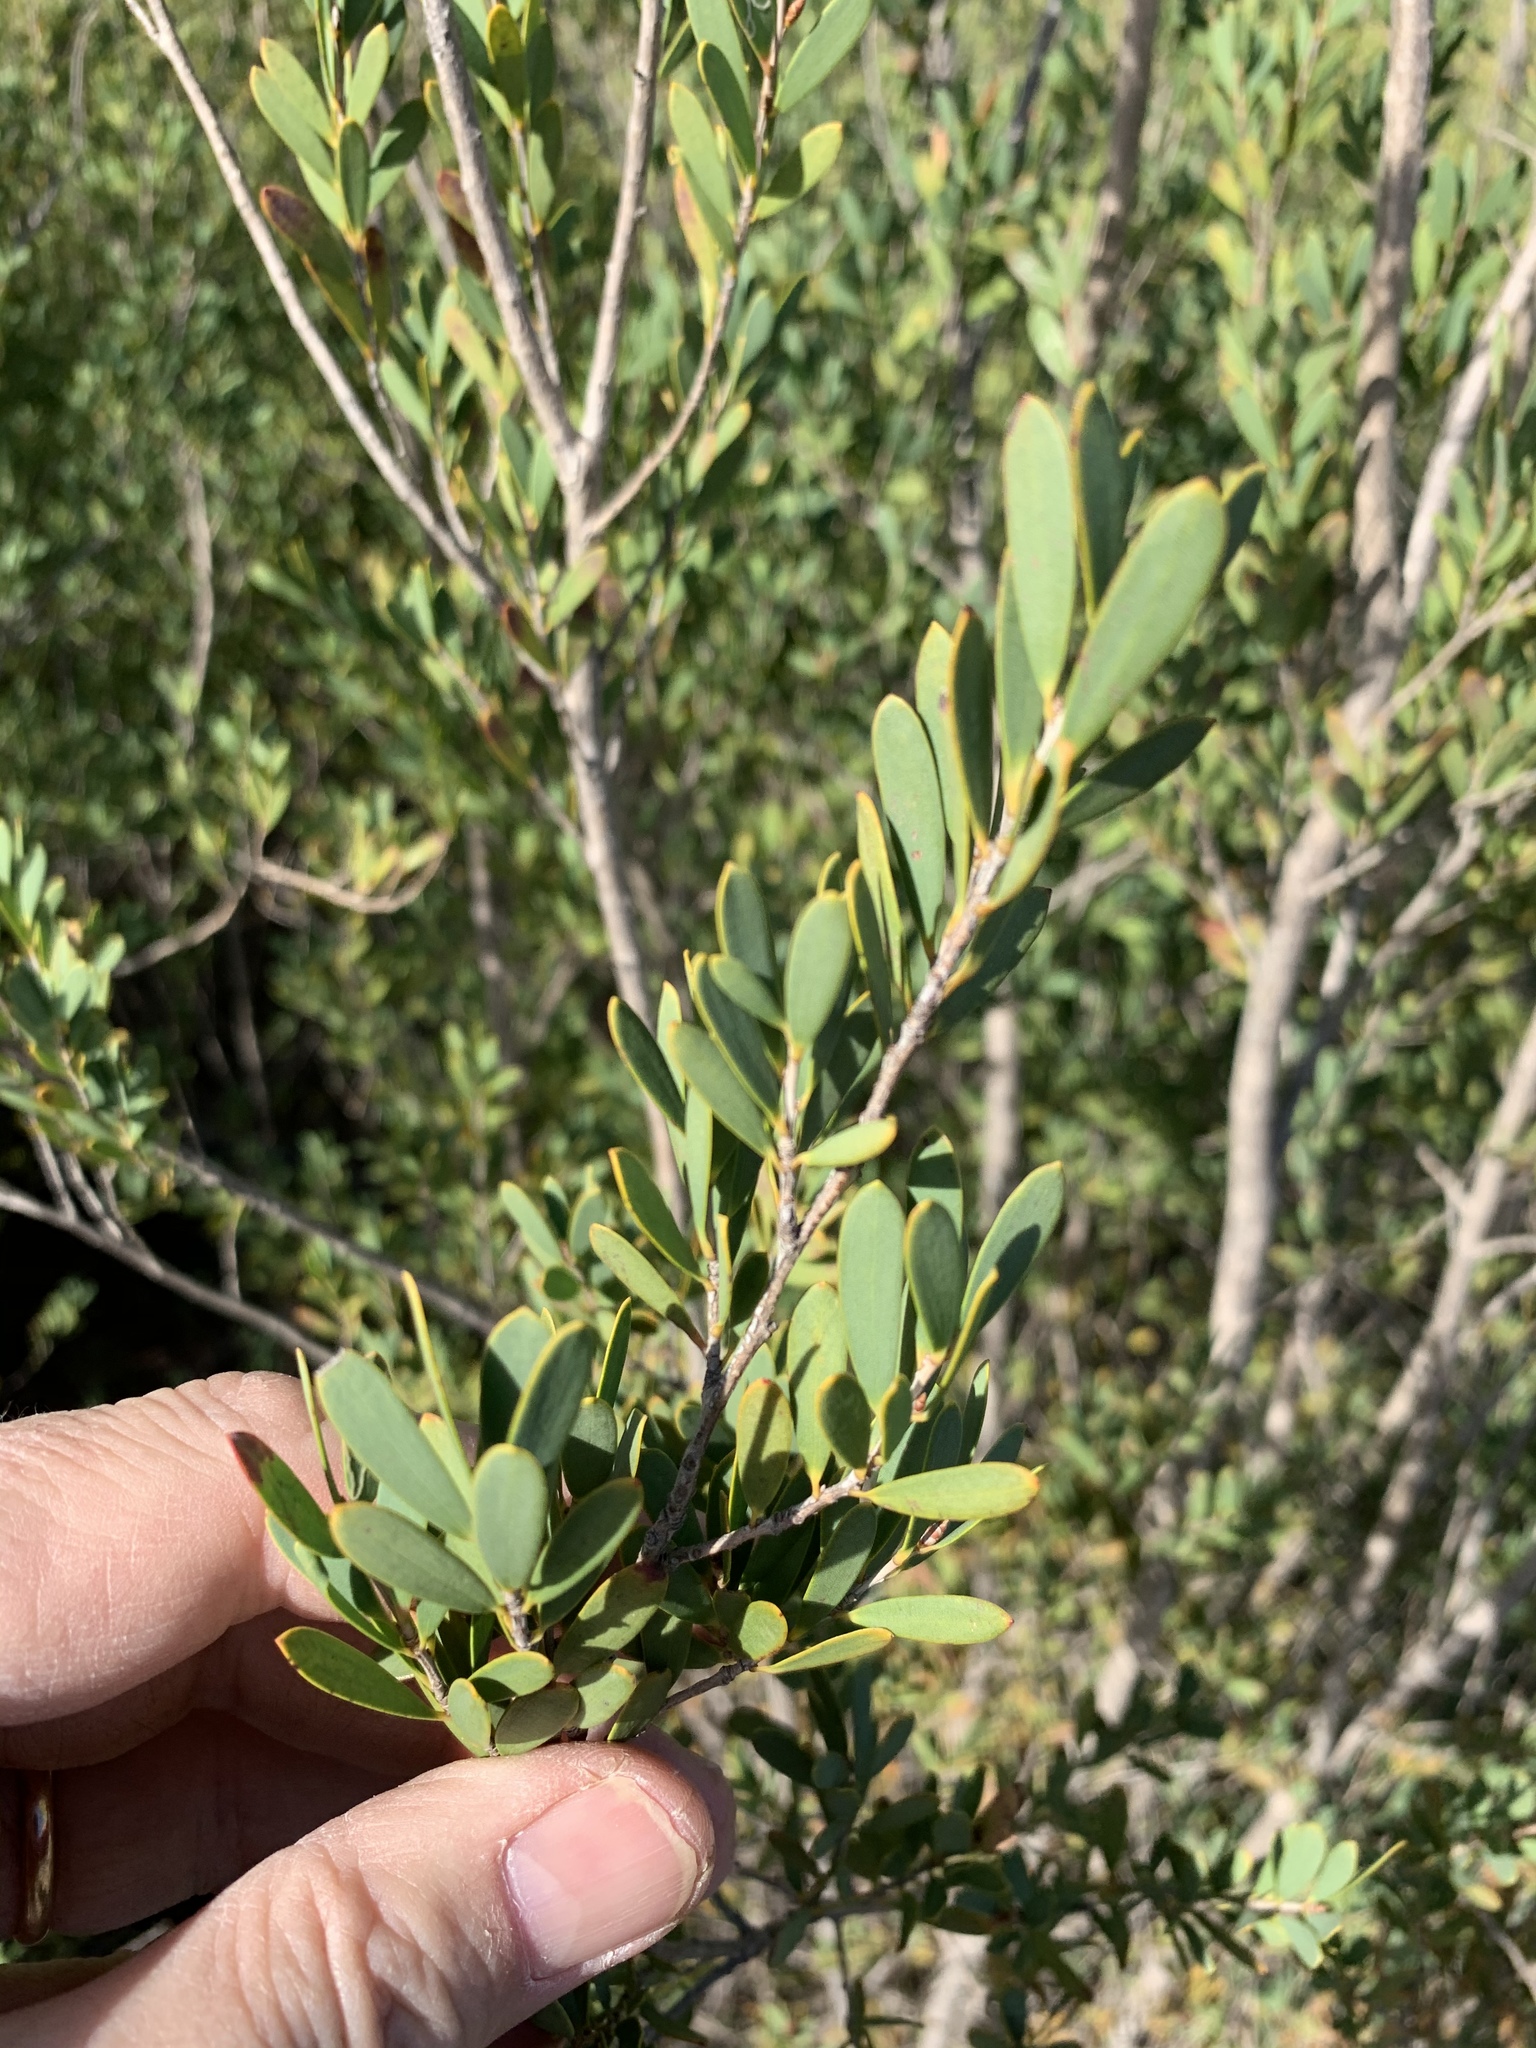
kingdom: Plantae
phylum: Tracheophyta
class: Magnoliopsida
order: Myrtales
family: Myrtaceae
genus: Leptospermum
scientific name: Leptospermum laevigatum
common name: Australian teatree
